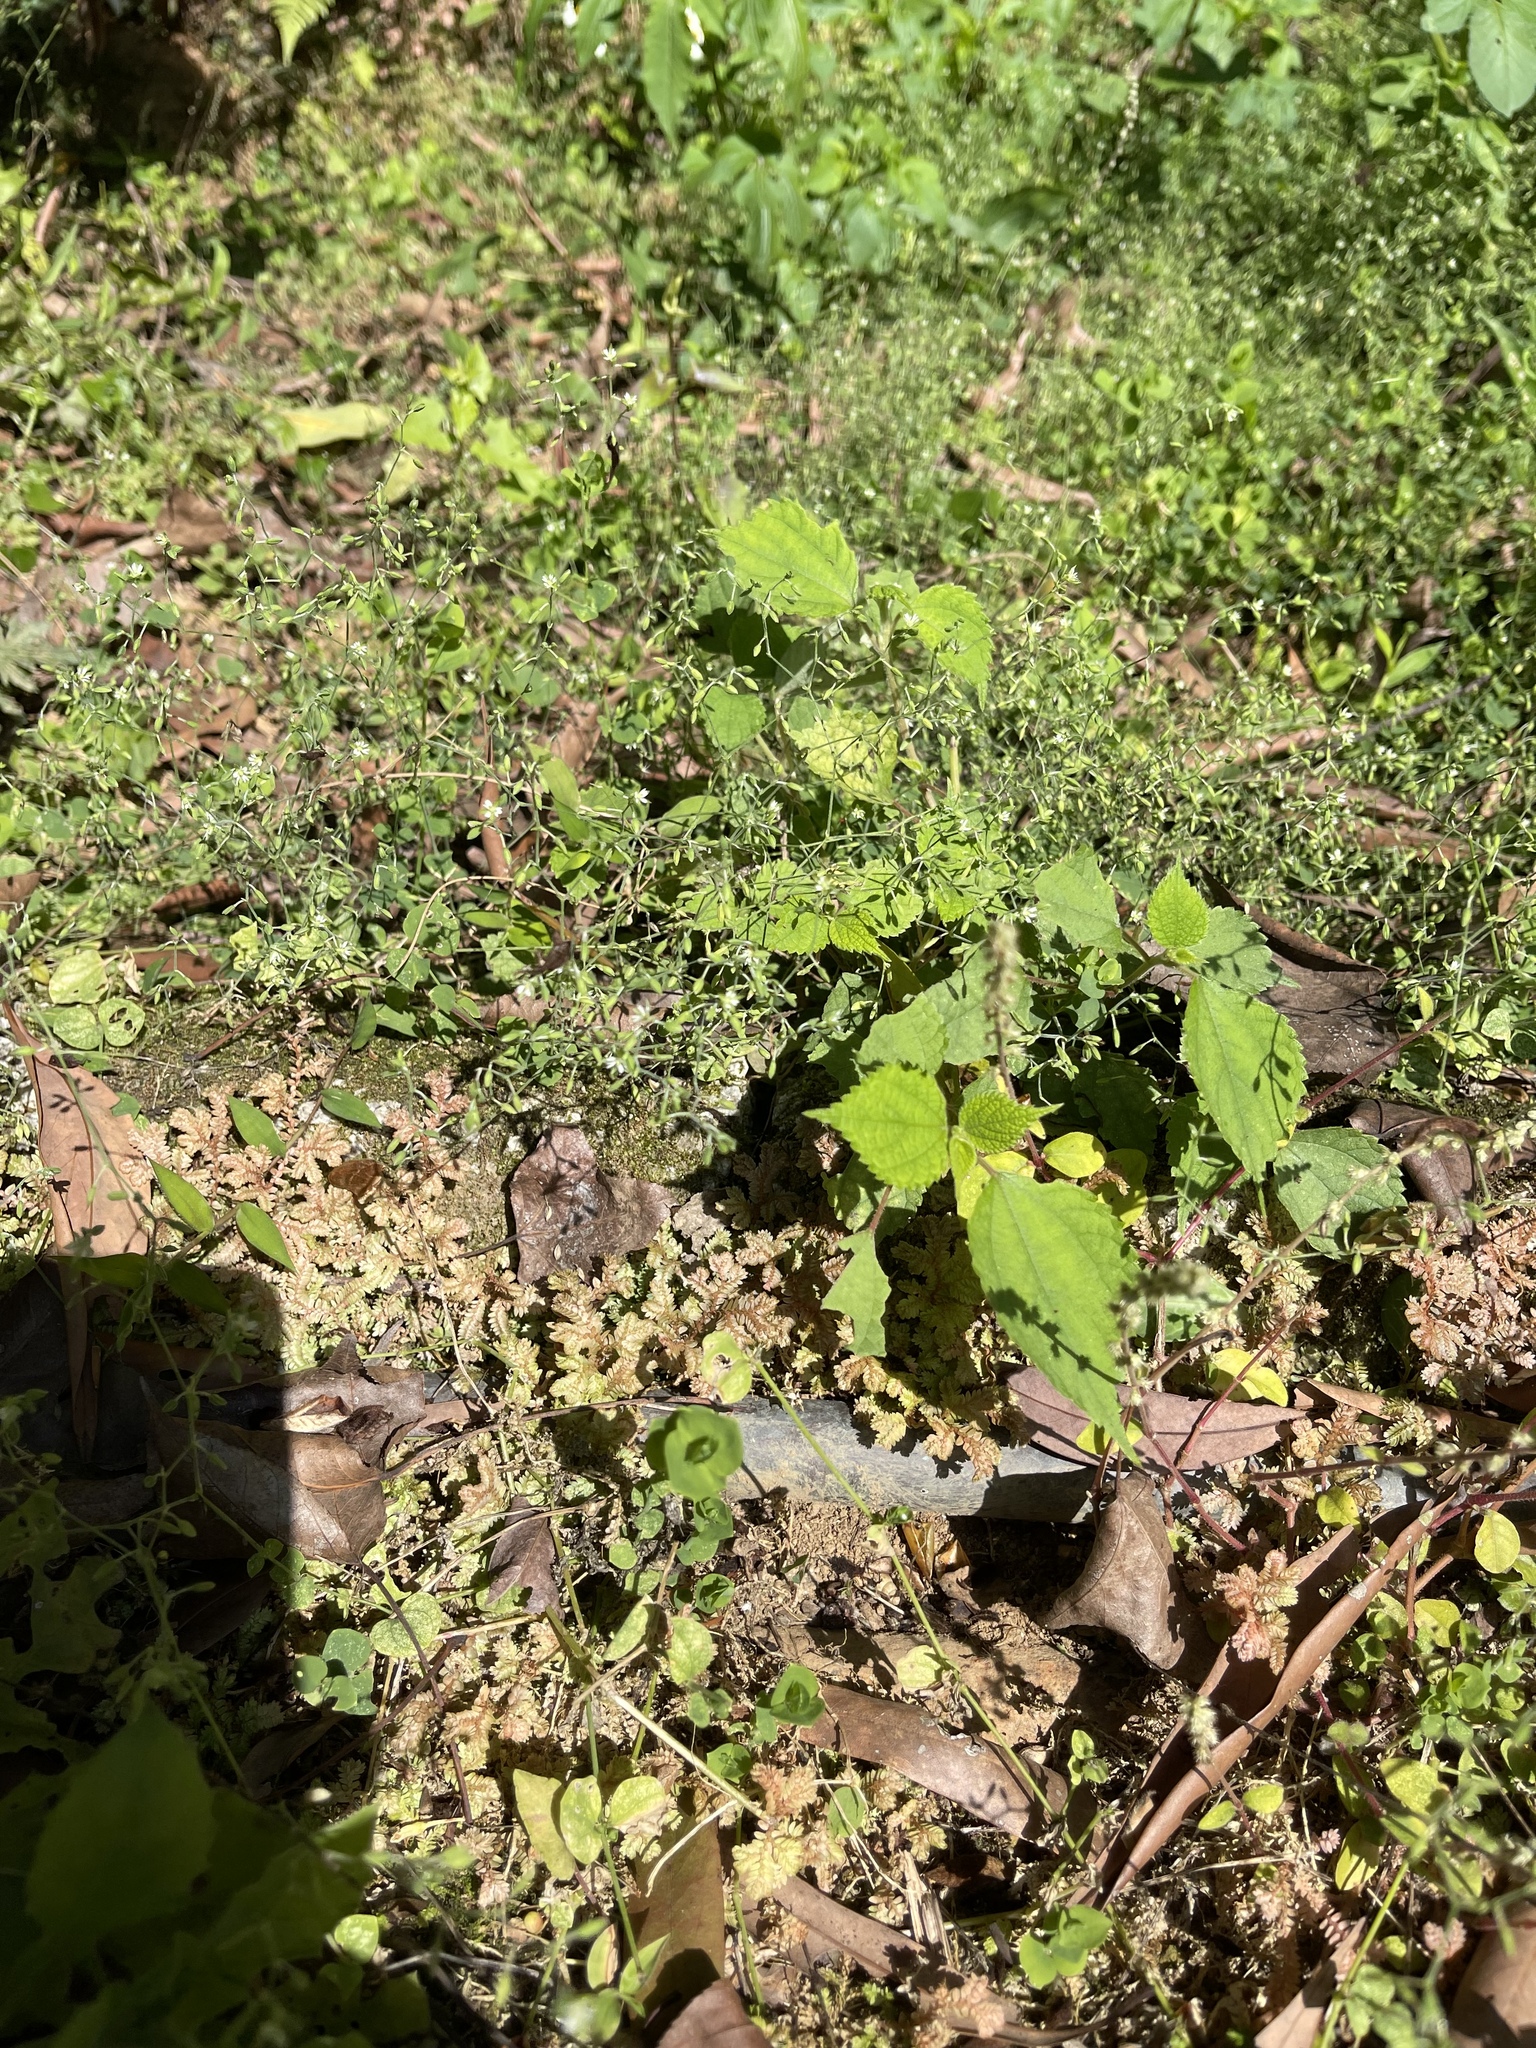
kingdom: Plantae
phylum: Tracheophyta
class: Magnoliopsida
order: Caryophyllales
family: Caryophyllaceae
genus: Drymaria
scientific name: Drymaria cordata
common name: Whitesnow
